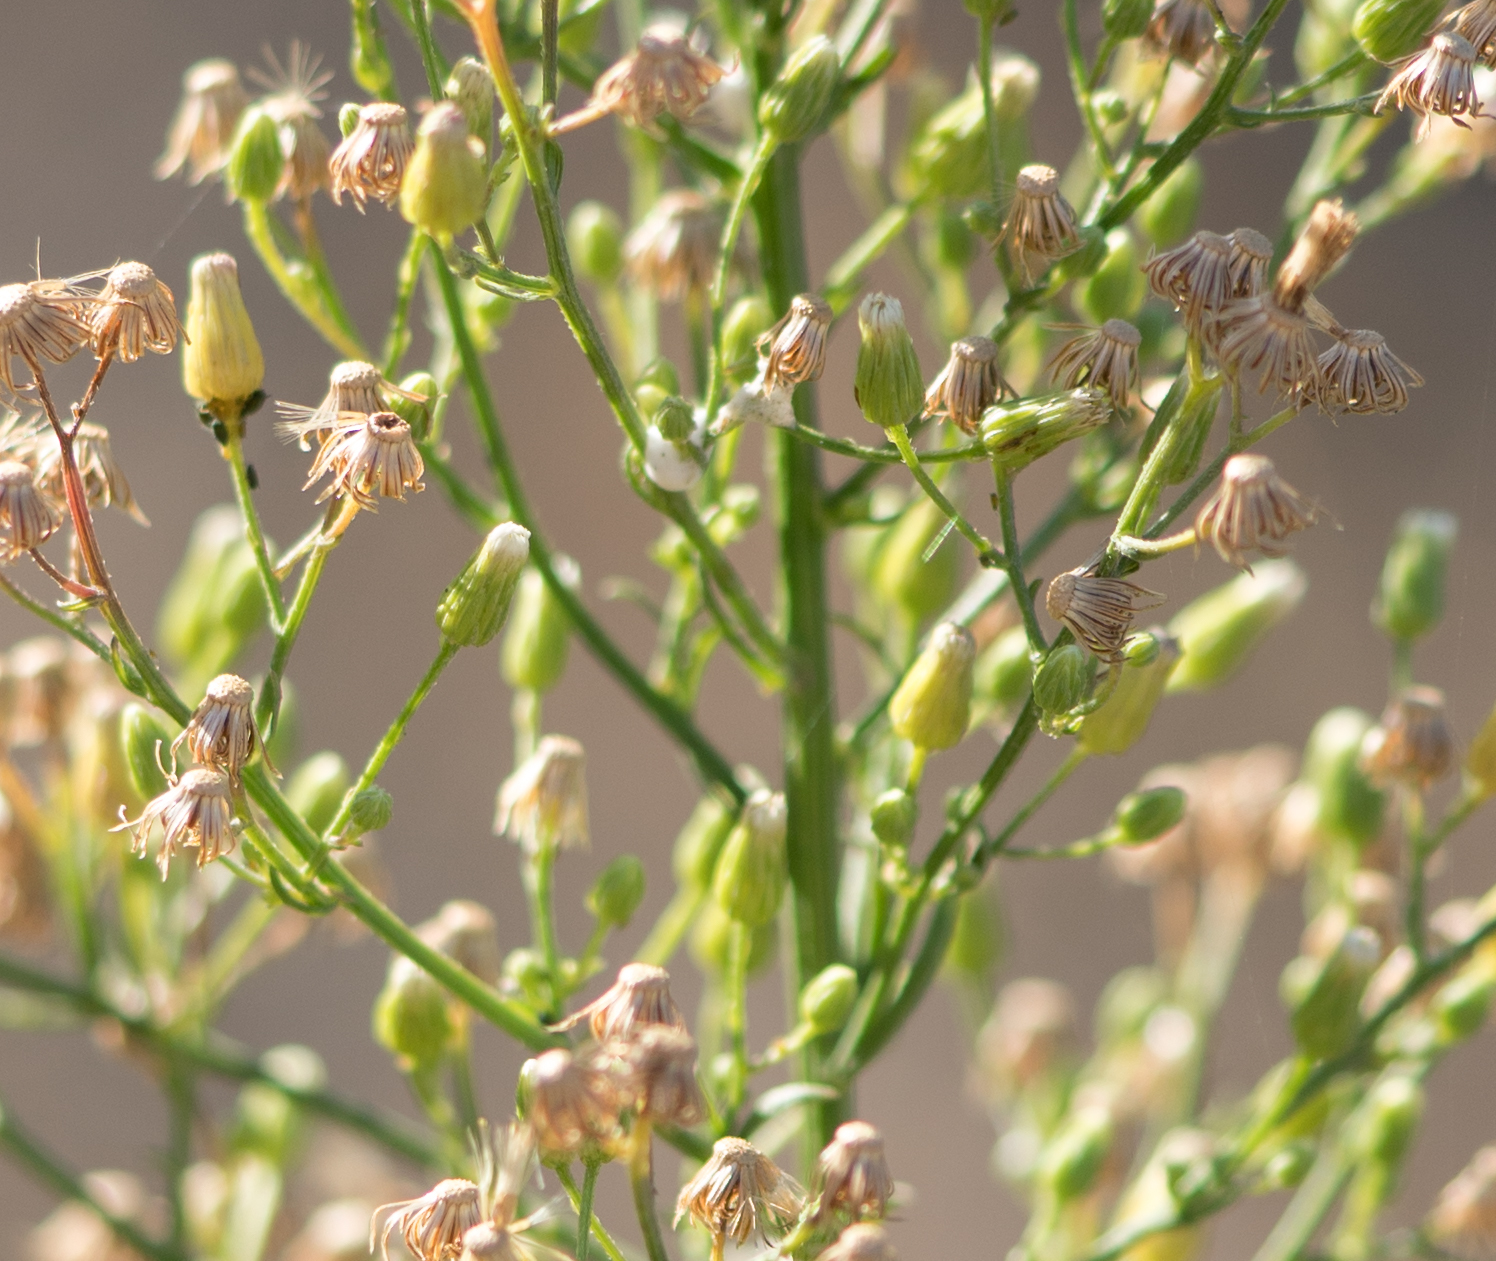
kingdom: Plantae
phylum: Tracheophyta
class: Magnoliopsida
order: Asterales
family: Asteraceae
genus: Erigeron
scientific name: Erigeron canadensis
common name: Canadian fleabane
